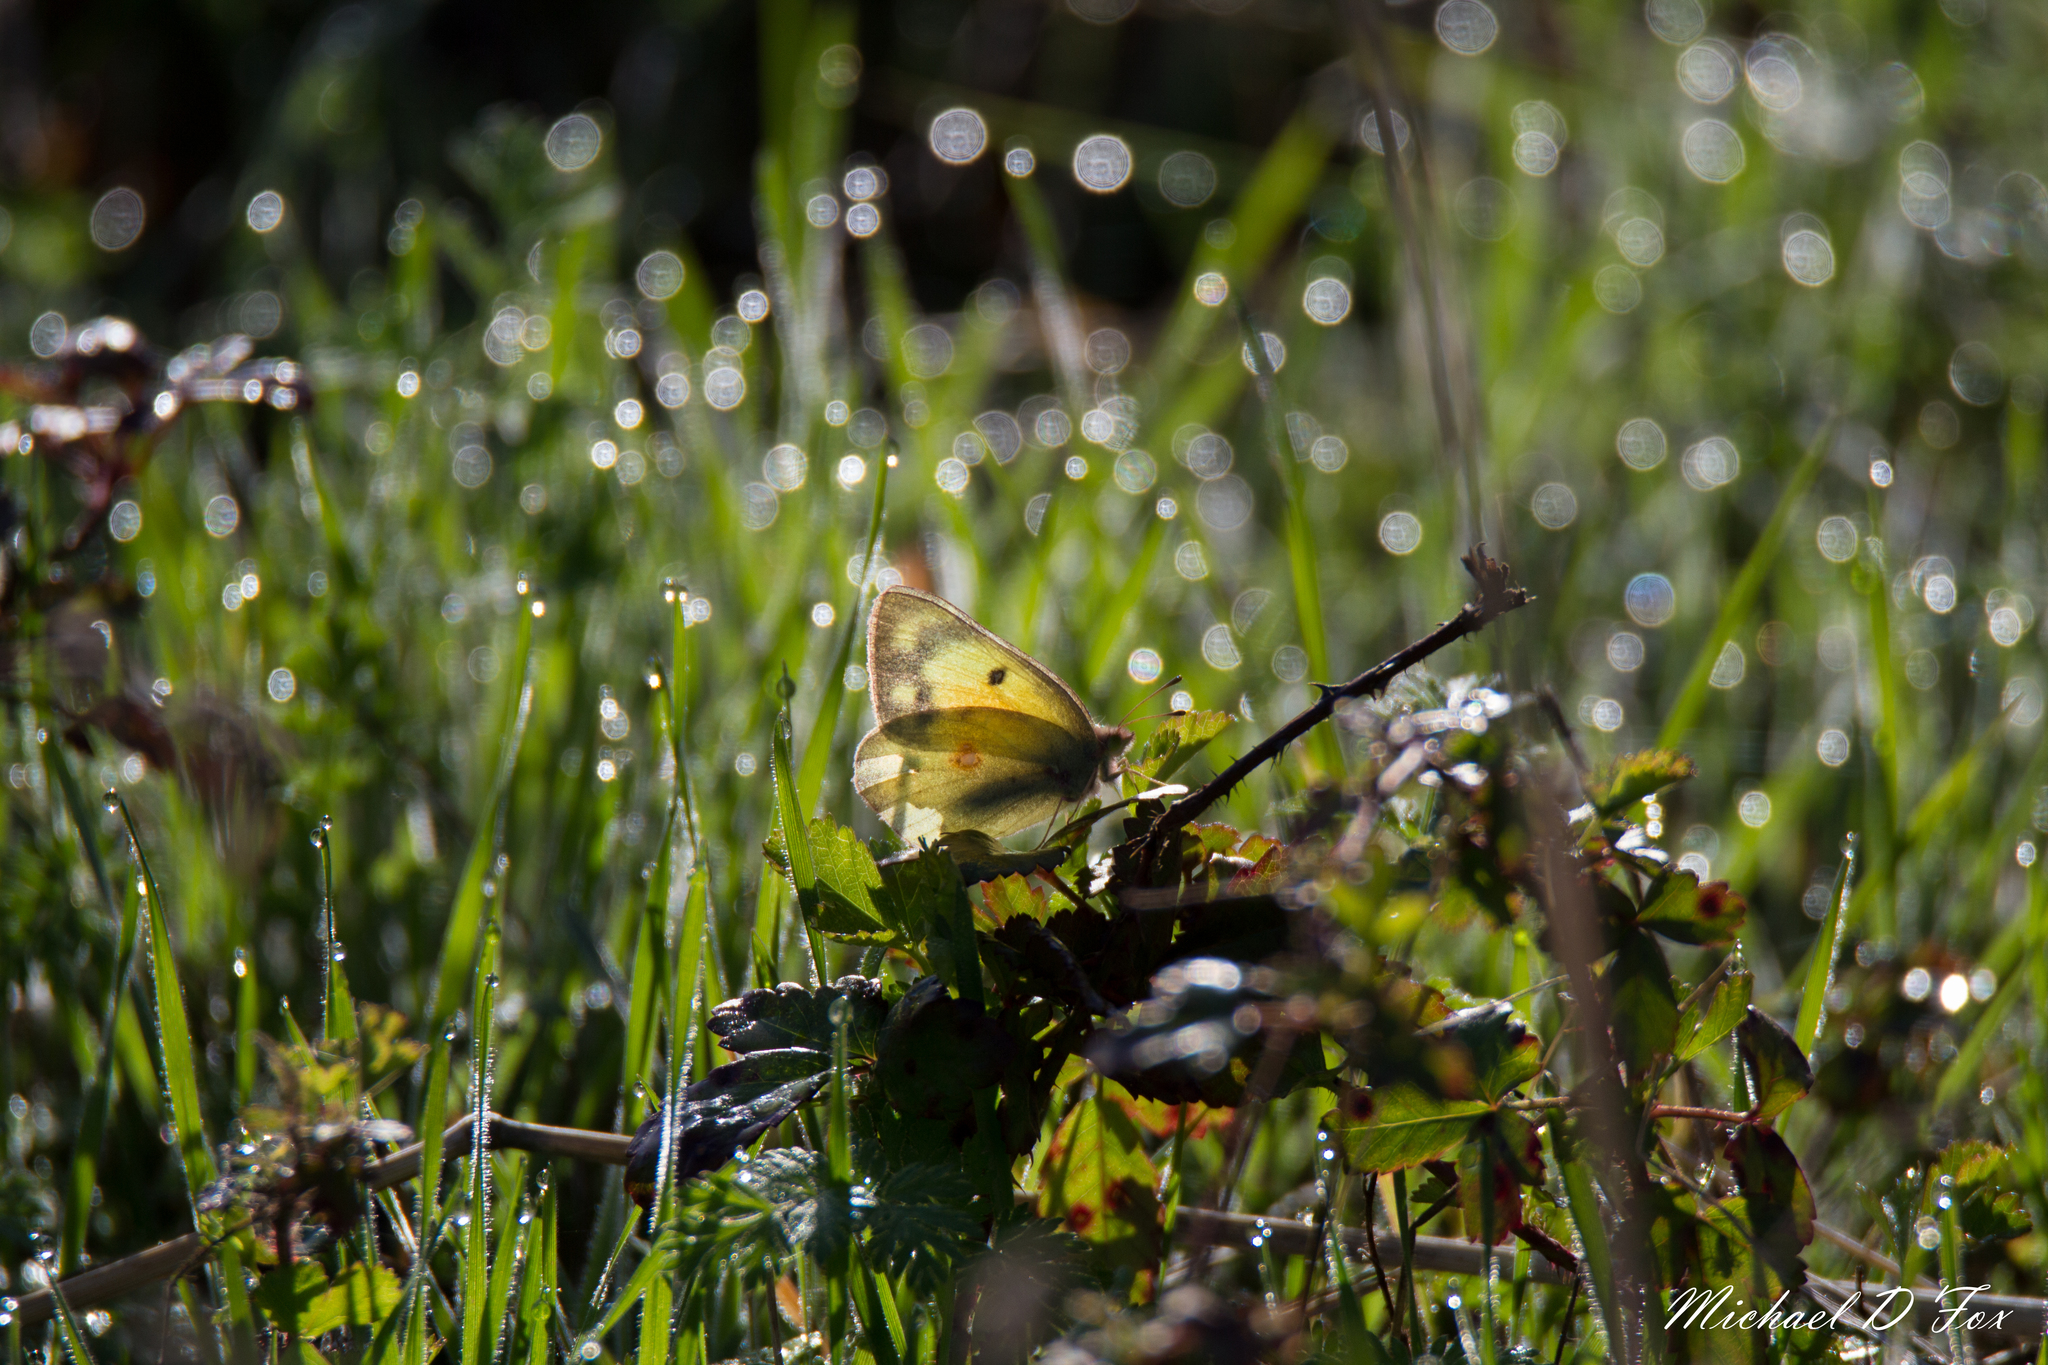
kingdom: Animalia
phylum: Arthropoda
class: Insecta
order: Lepidoptera
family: Pieridae
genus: Colias
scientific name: Colias eurytheme
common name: Alfalfa butterfly
